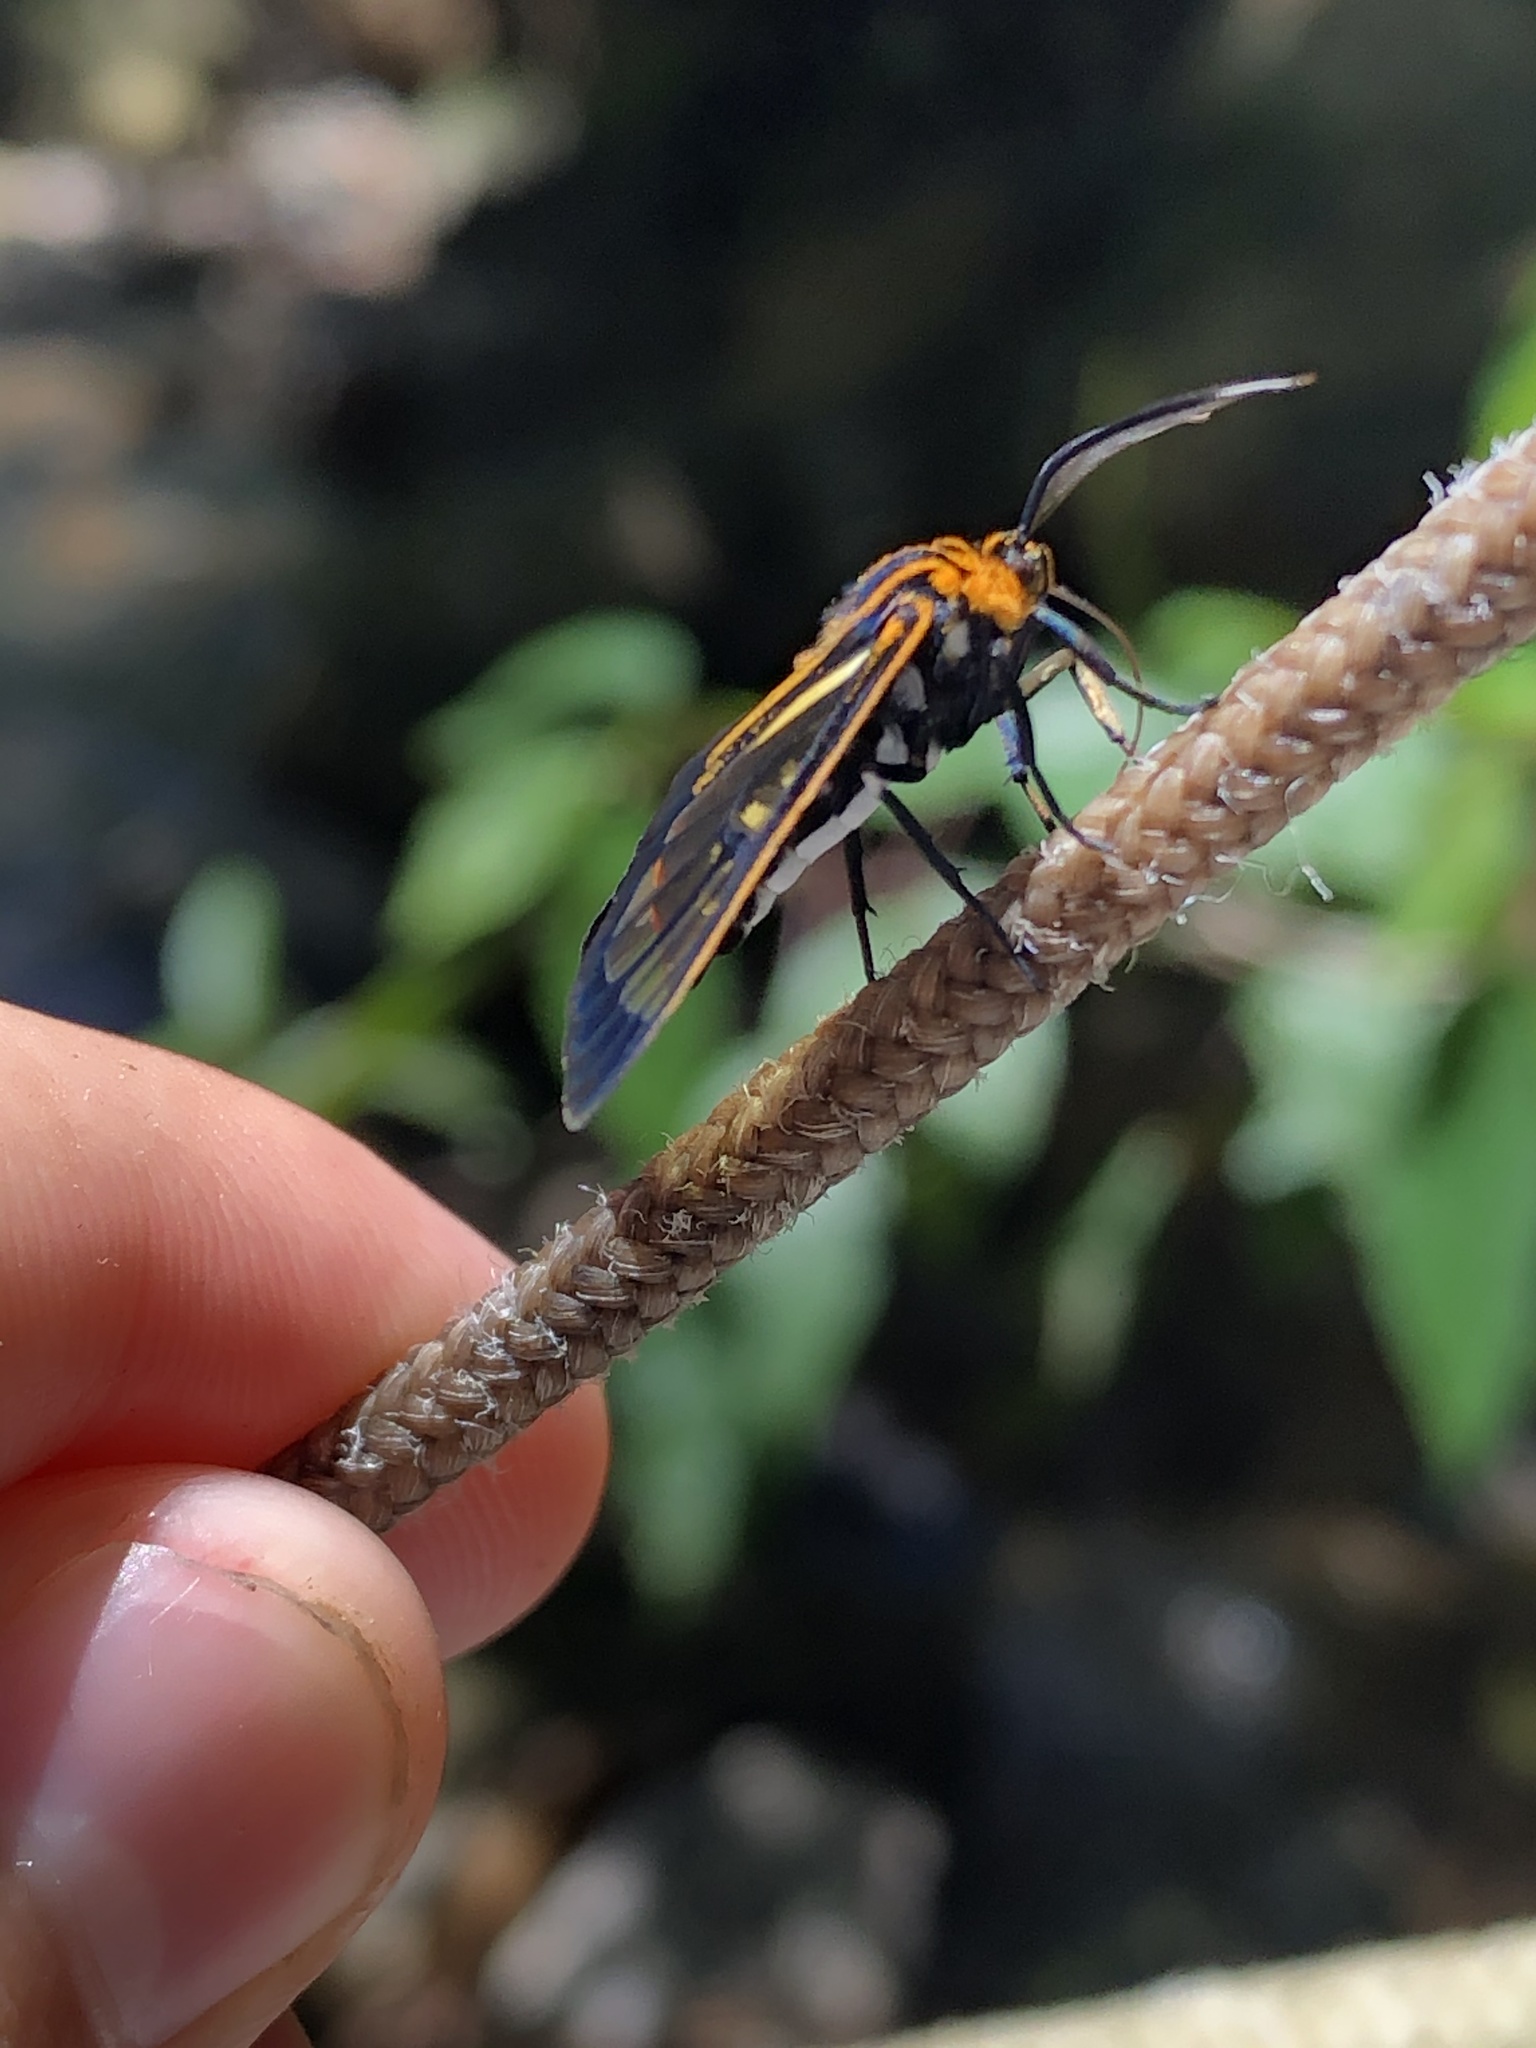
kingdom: Animalia
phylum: Arthropoda
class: Insecta
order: Lepidoptera
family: Erebidae
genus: Paraethria
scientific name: Paraethria flavosignata
